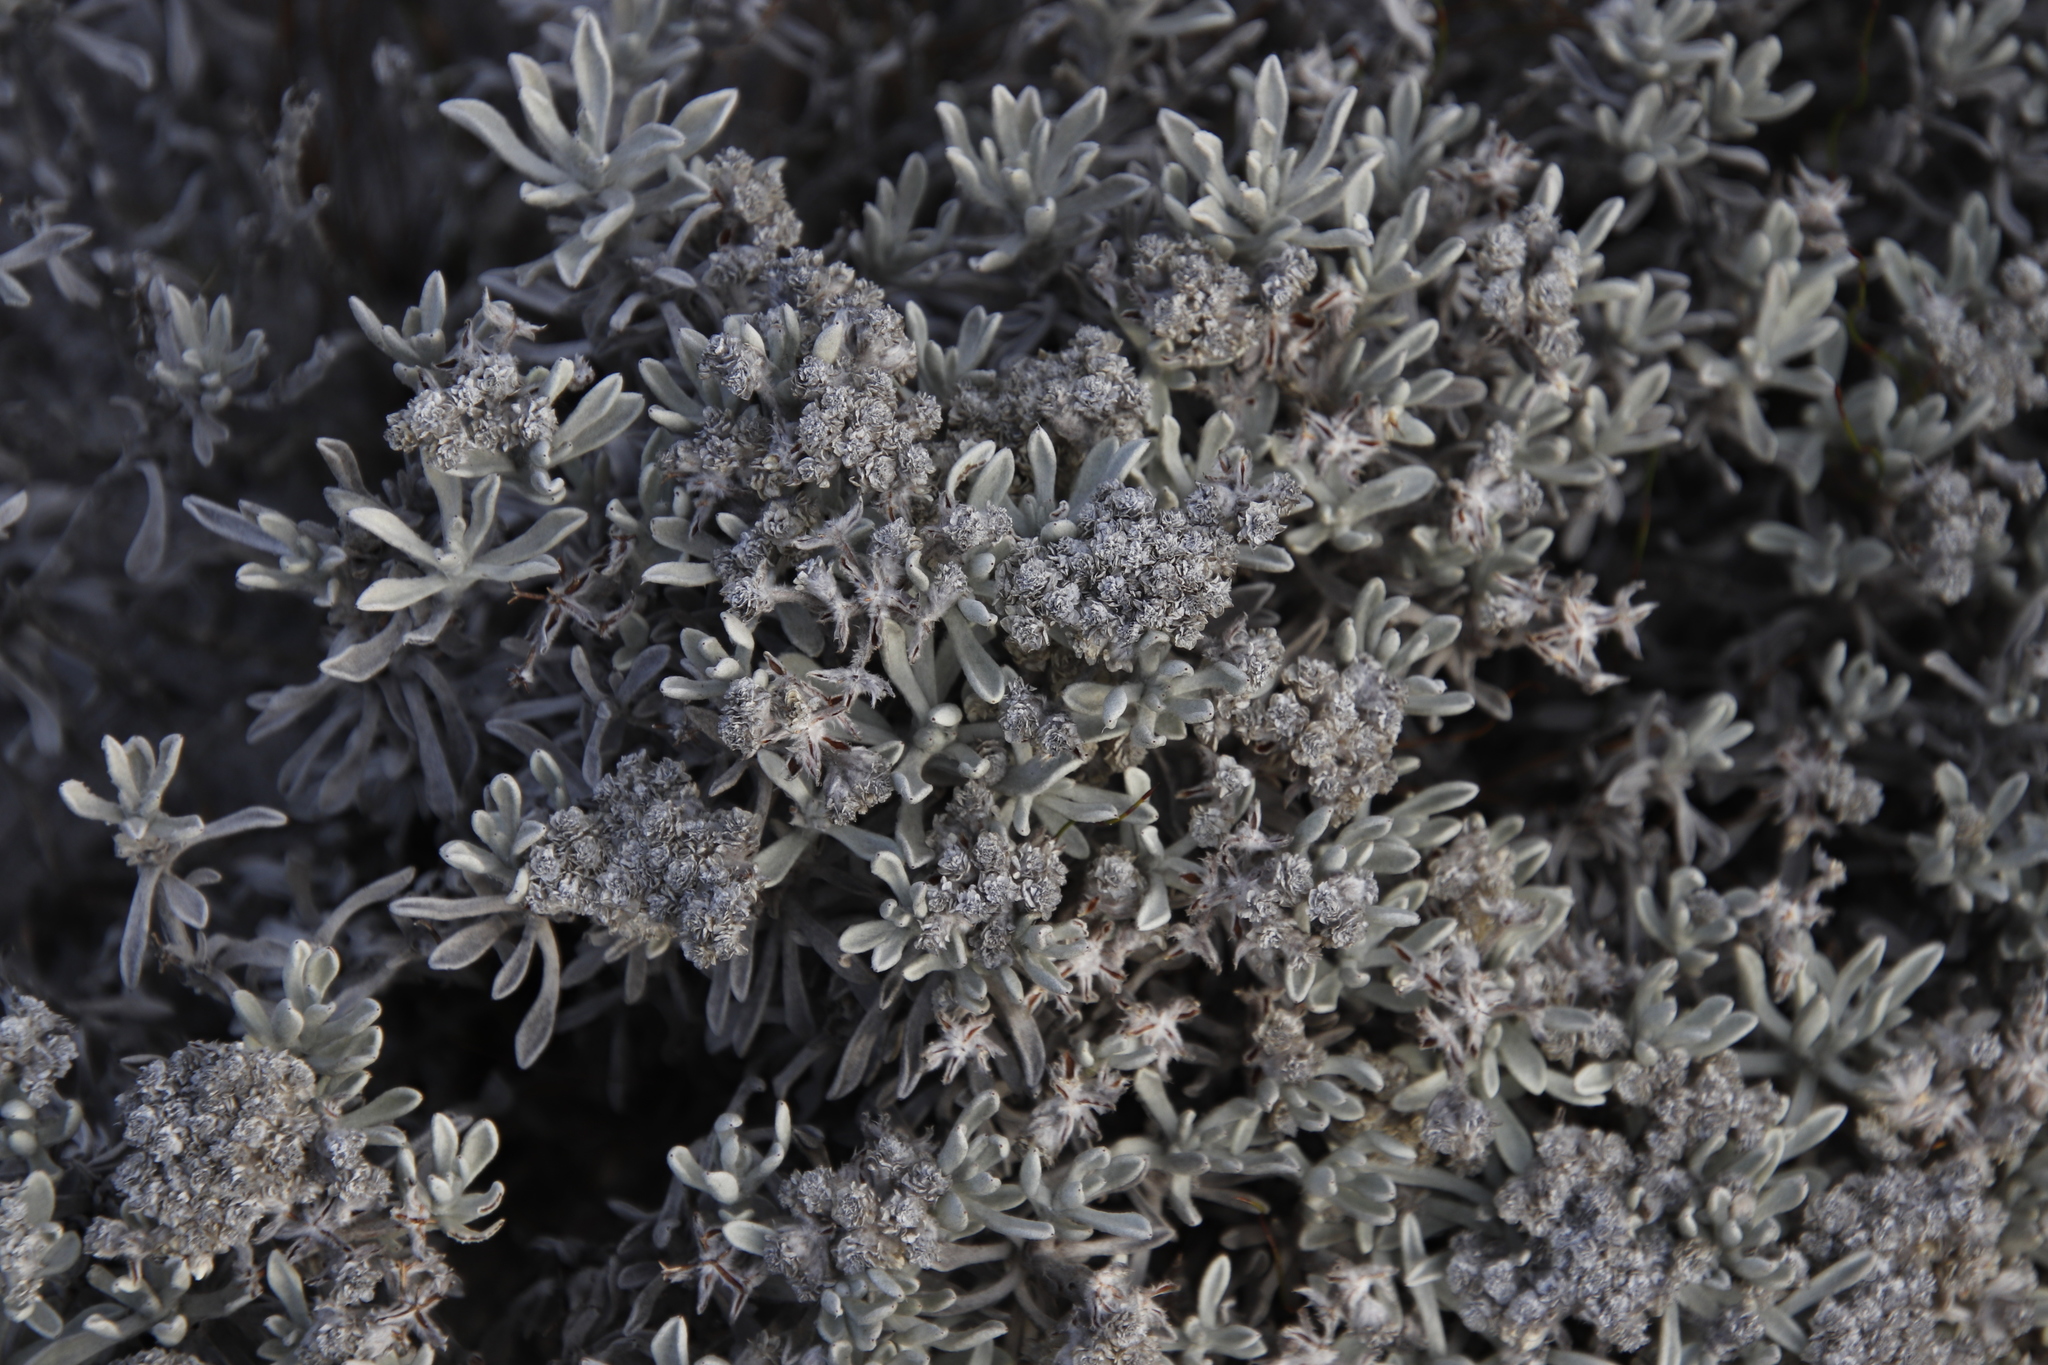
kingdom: Plantae
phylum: Tracheophyta
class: Magnoliopsida
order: Asterales
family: Asteraceae
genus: Petalacte
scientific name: Petalacte coronata
